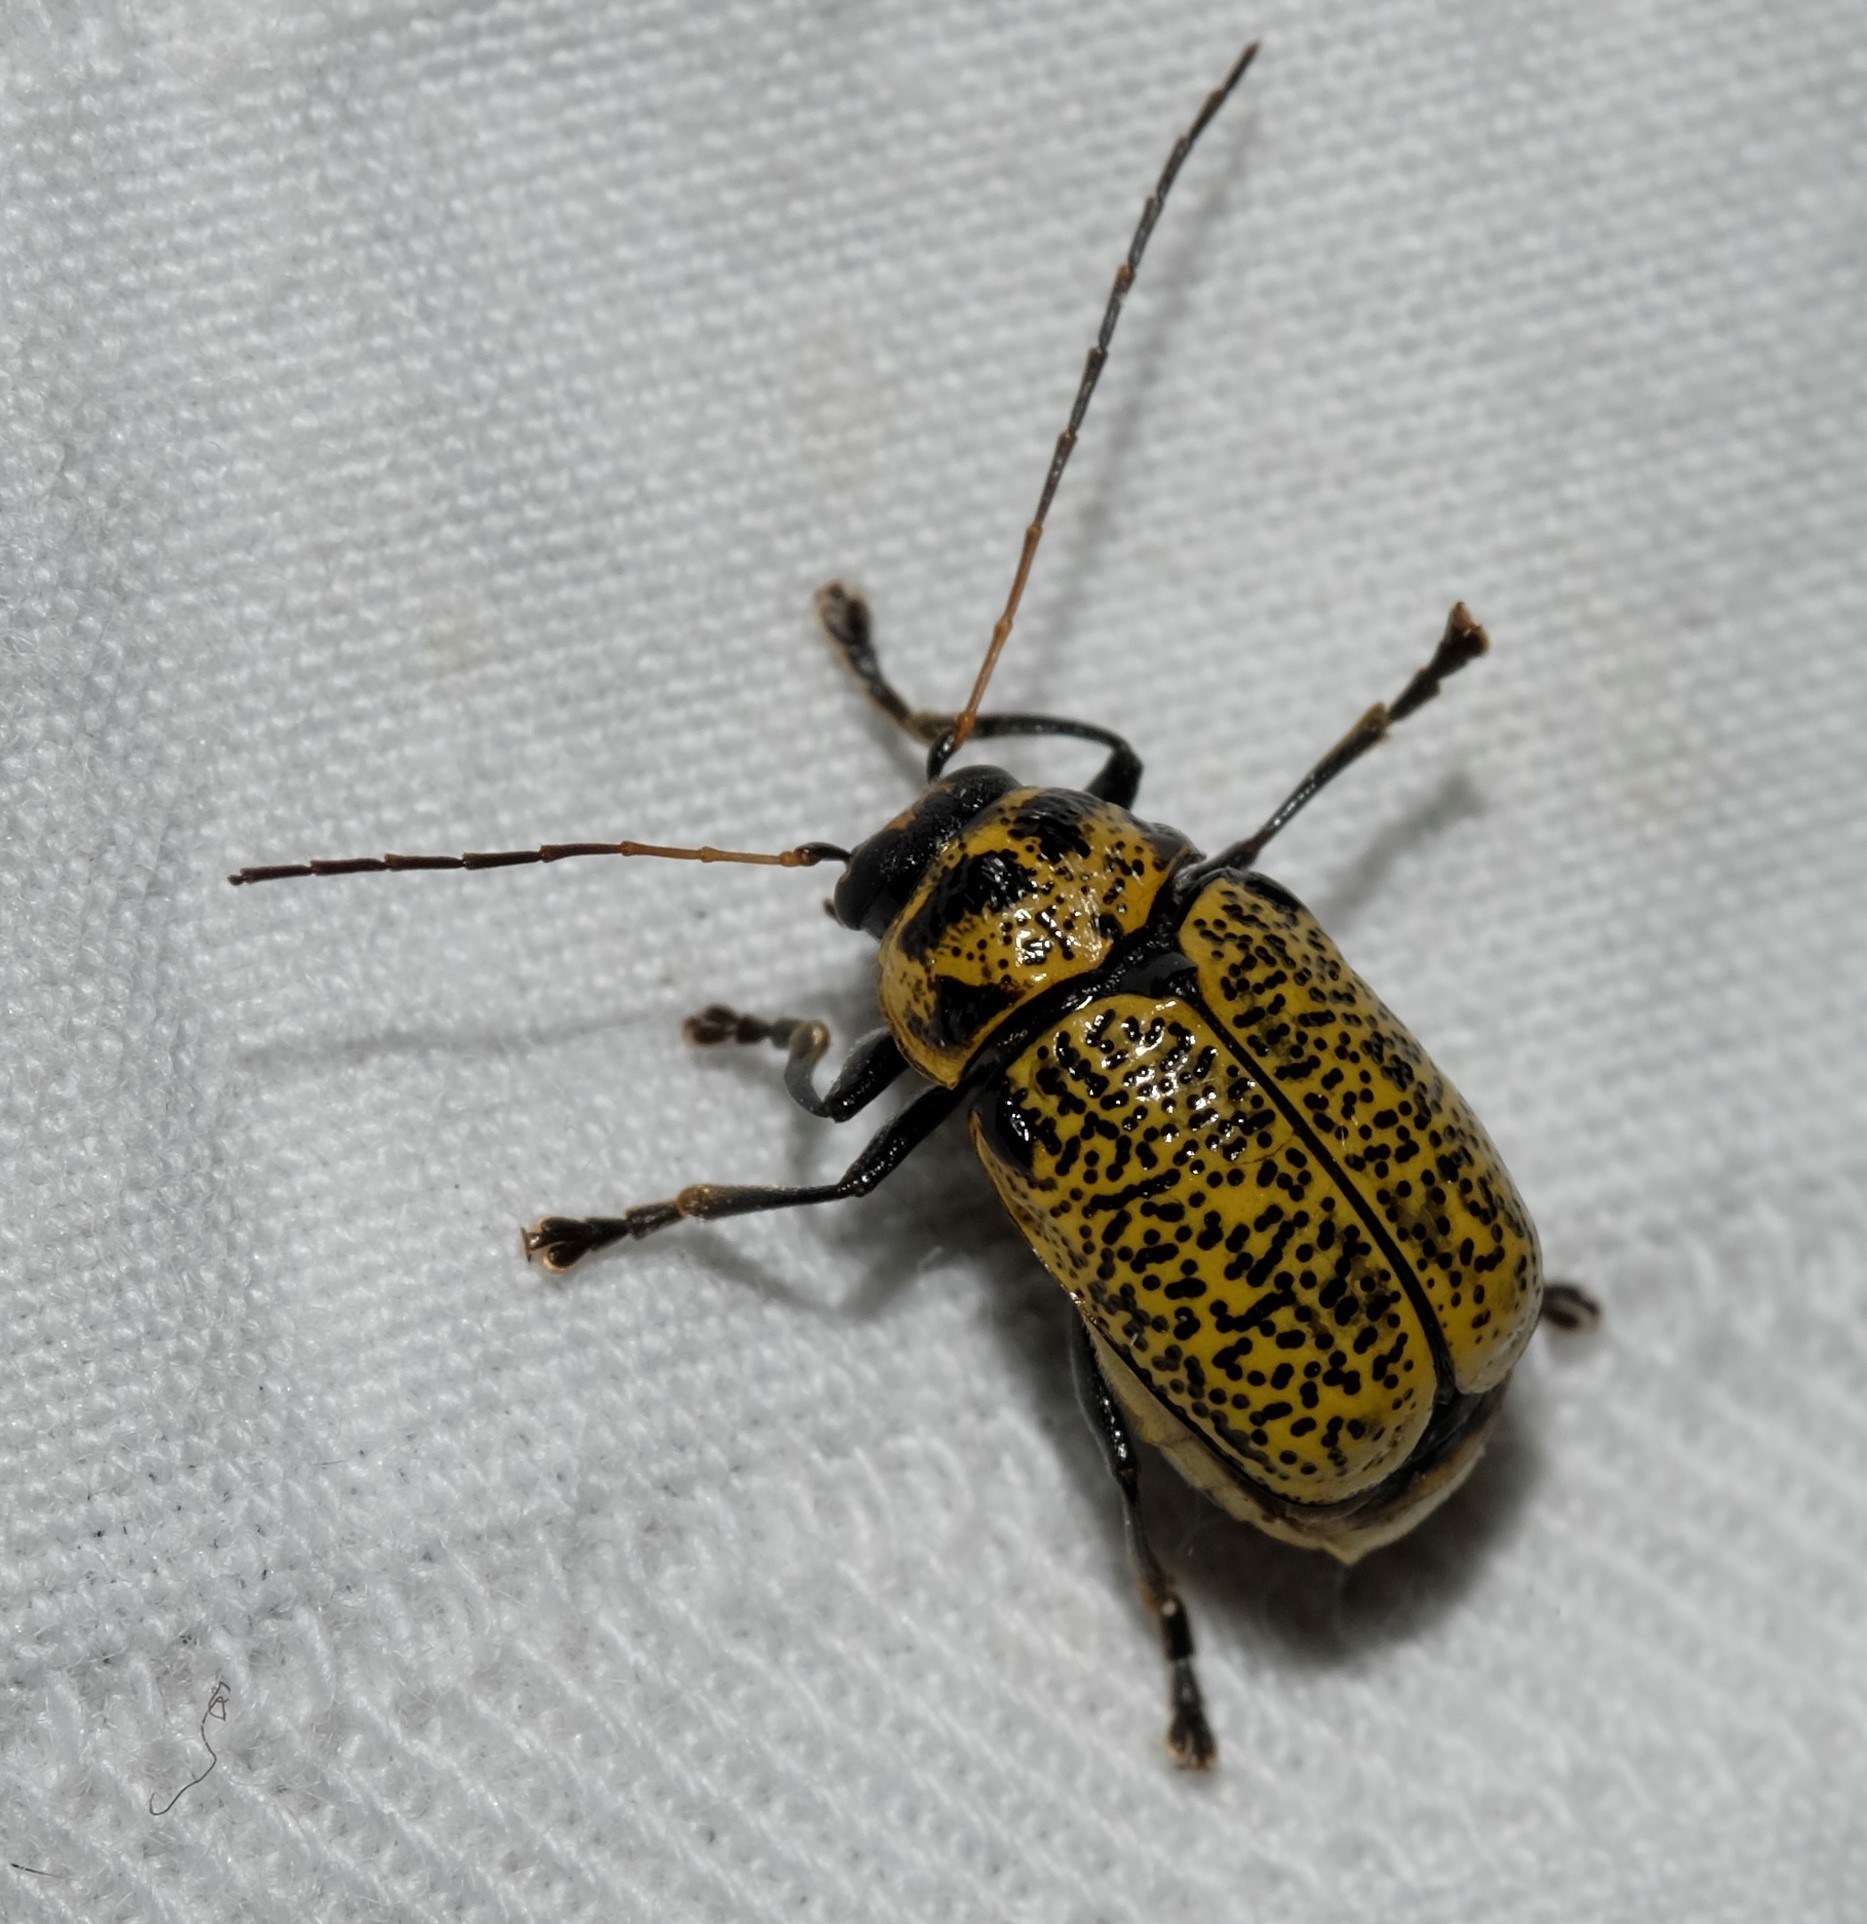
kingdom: Animalia
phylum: Arthropoda
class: Insecta
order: Coleoptera
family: Chrysomelidae
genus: Aporocera
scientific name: Aporocera
